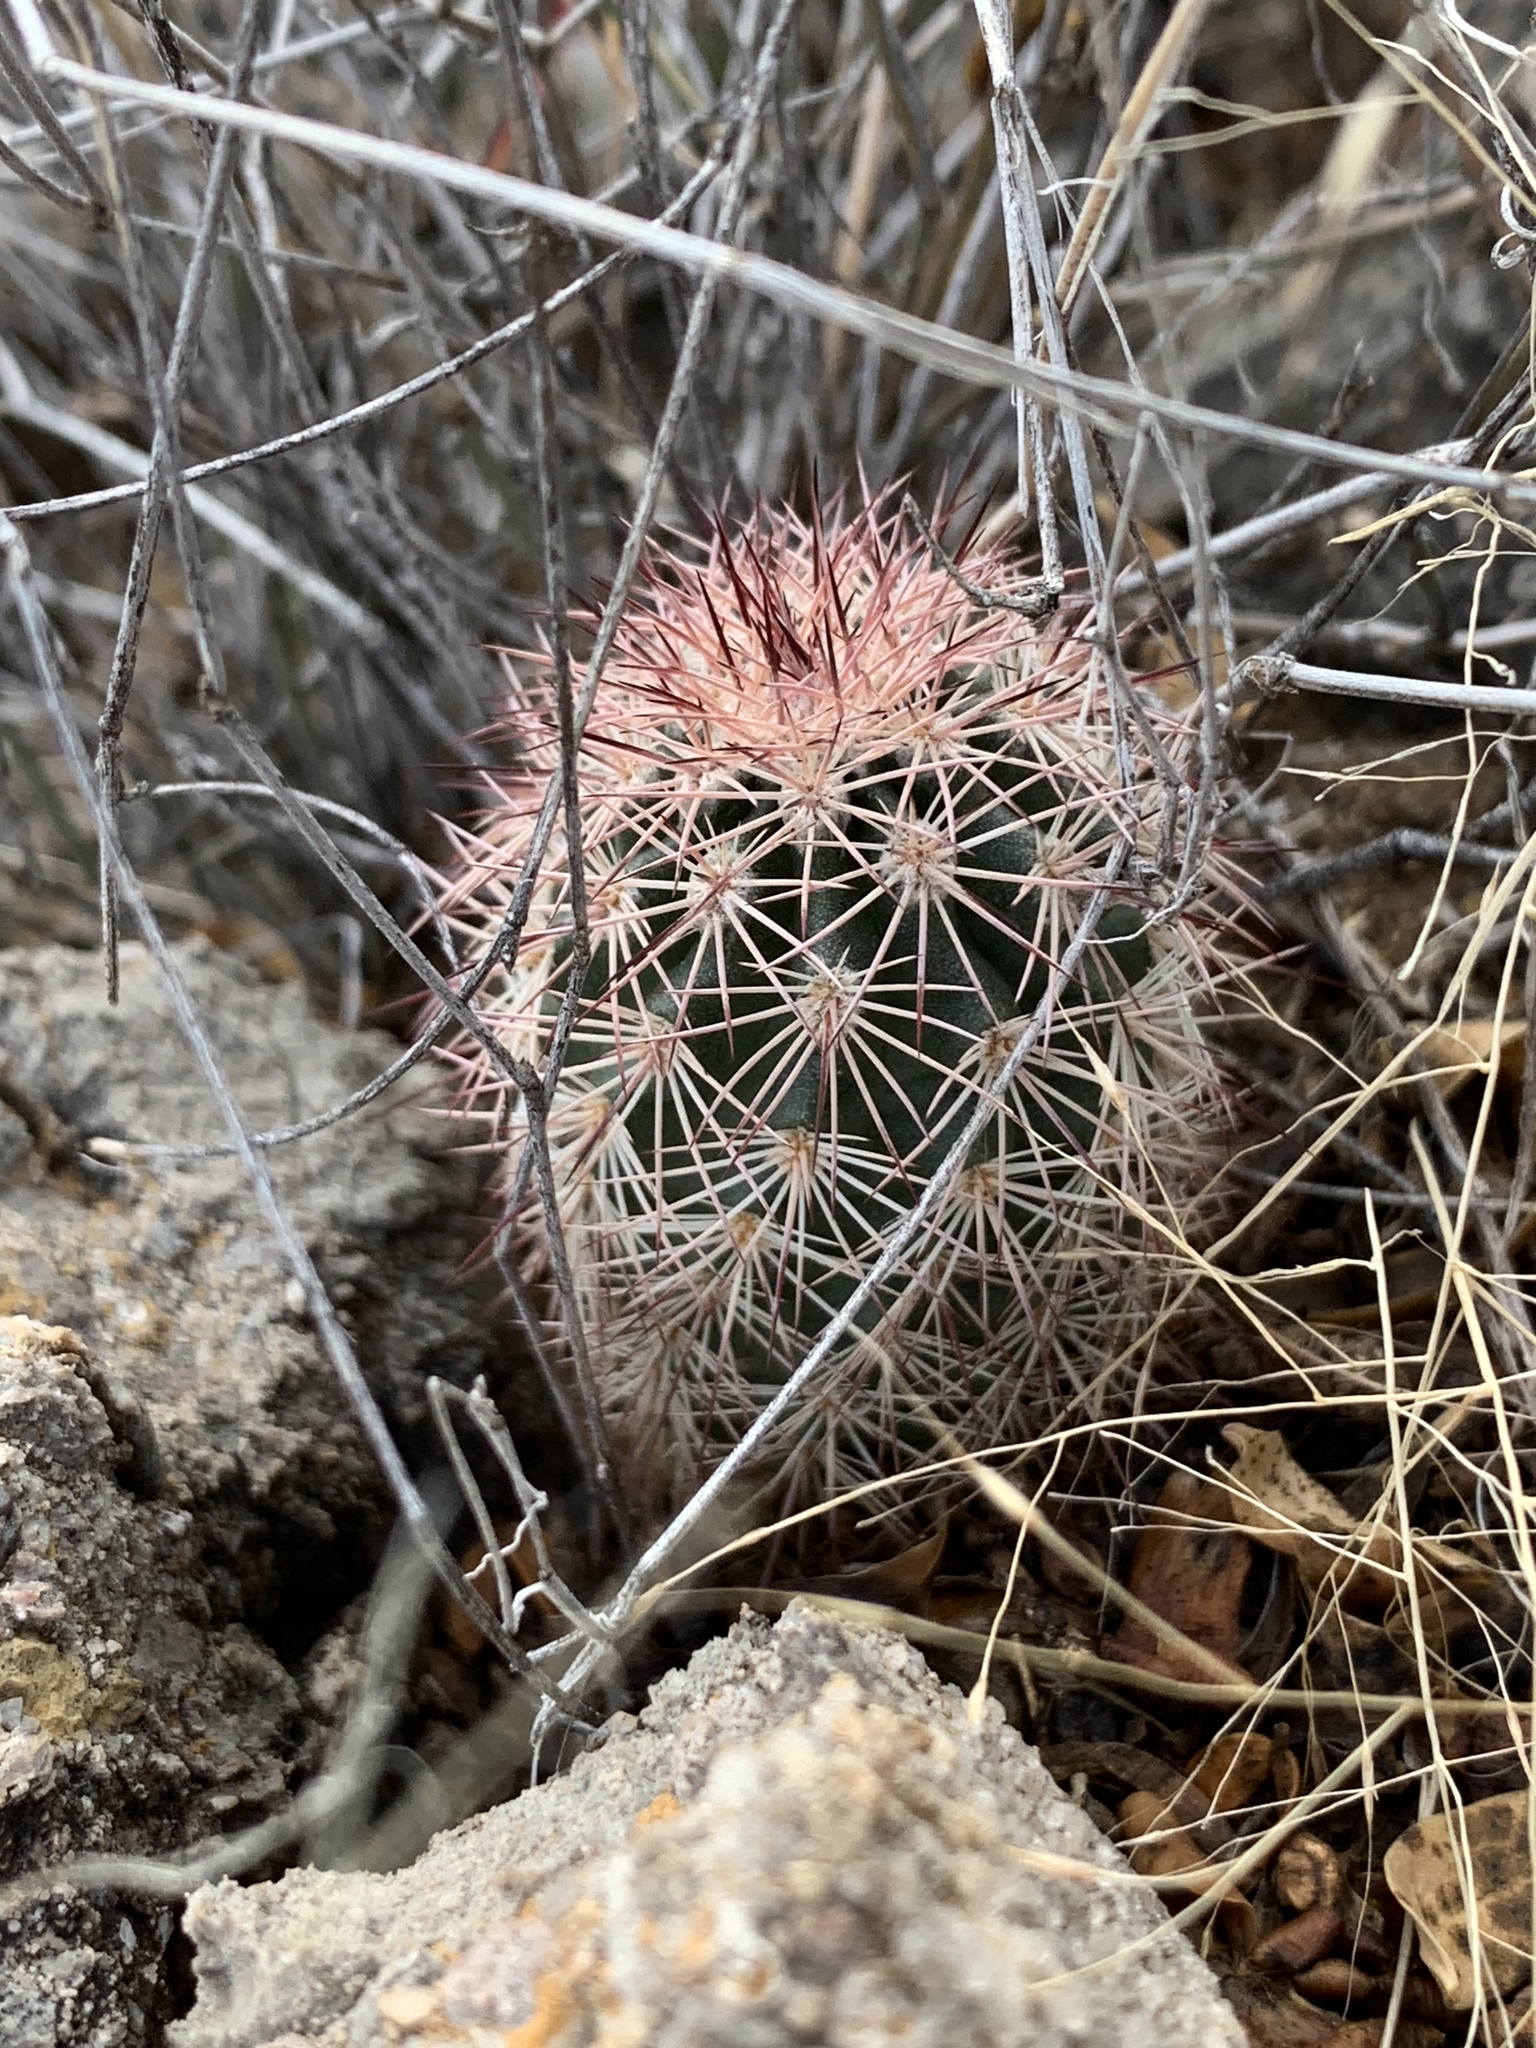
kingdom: Plantae
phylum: Tracheophyta
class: Magnoliopsida
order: Caryophyllales
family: Cactaceae
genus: Echinocereus
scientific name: Echinocereus dasyacanthus
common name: Spiny hedgehog cactus
